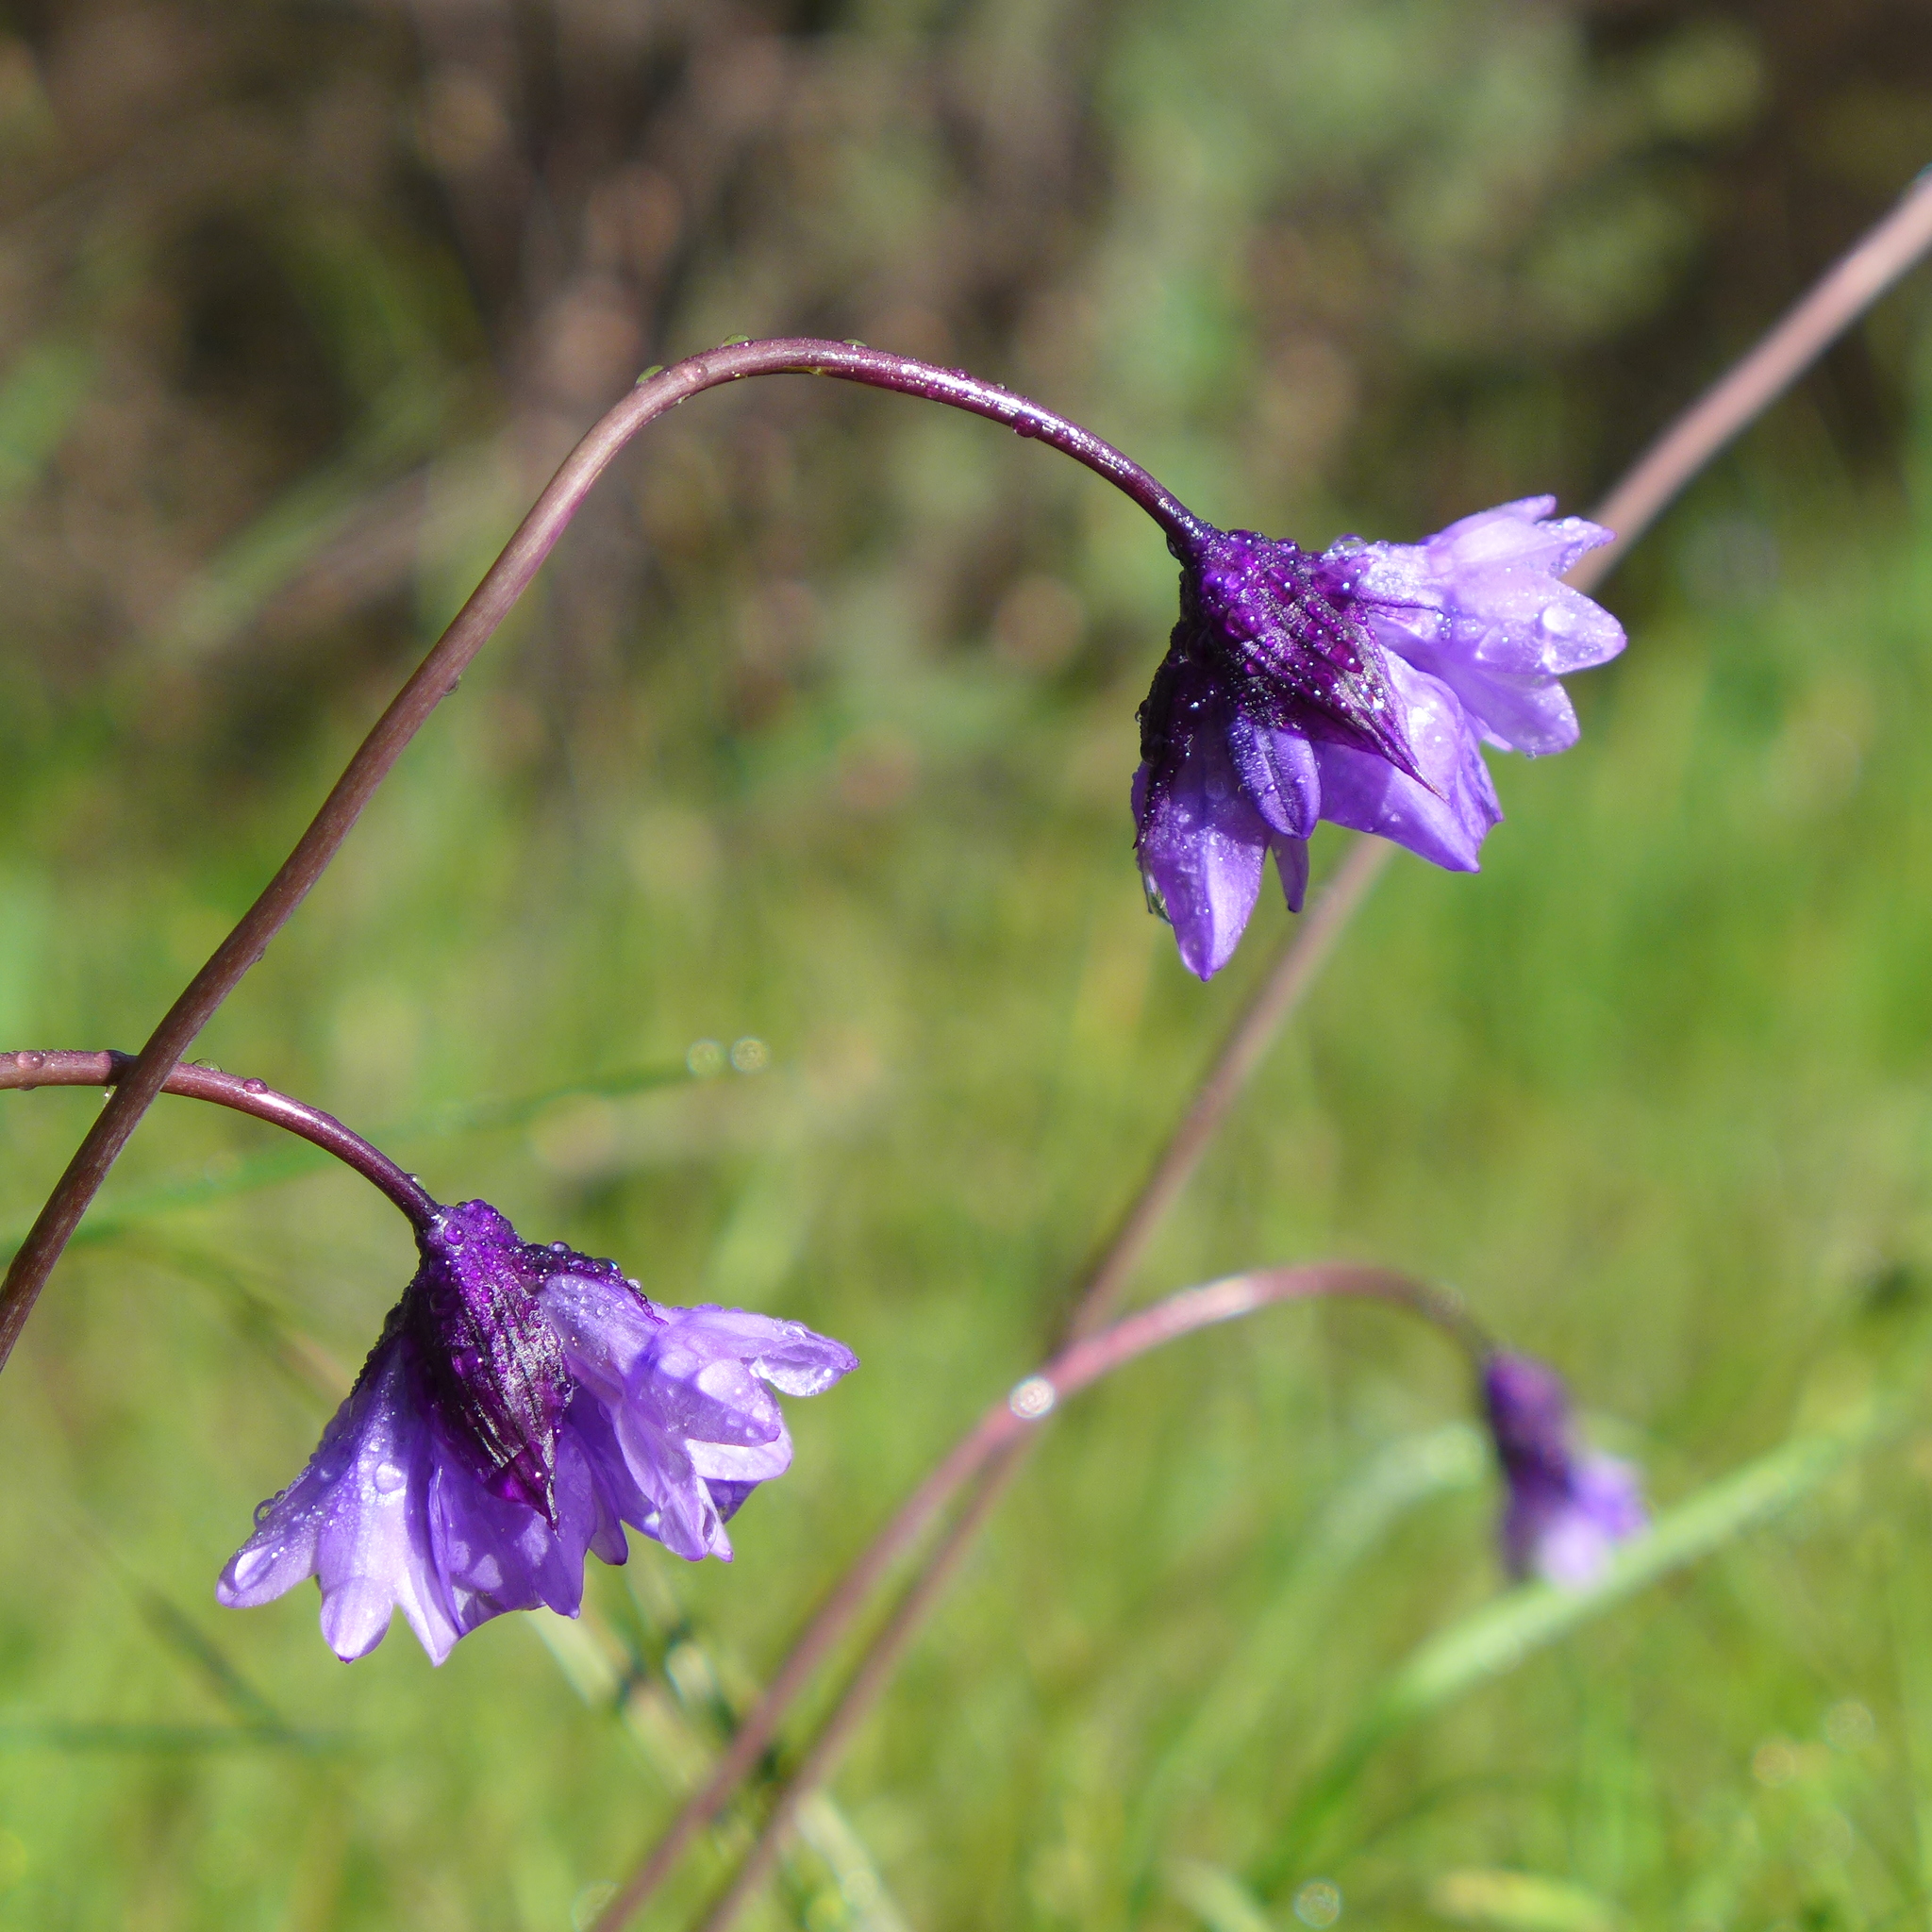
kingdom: Plantae
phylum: Tracheophyta
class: Liliopsida
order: Asparagales
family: Asparagaceae
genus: Dipterostemon
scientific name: Dipterostemon capitatus
